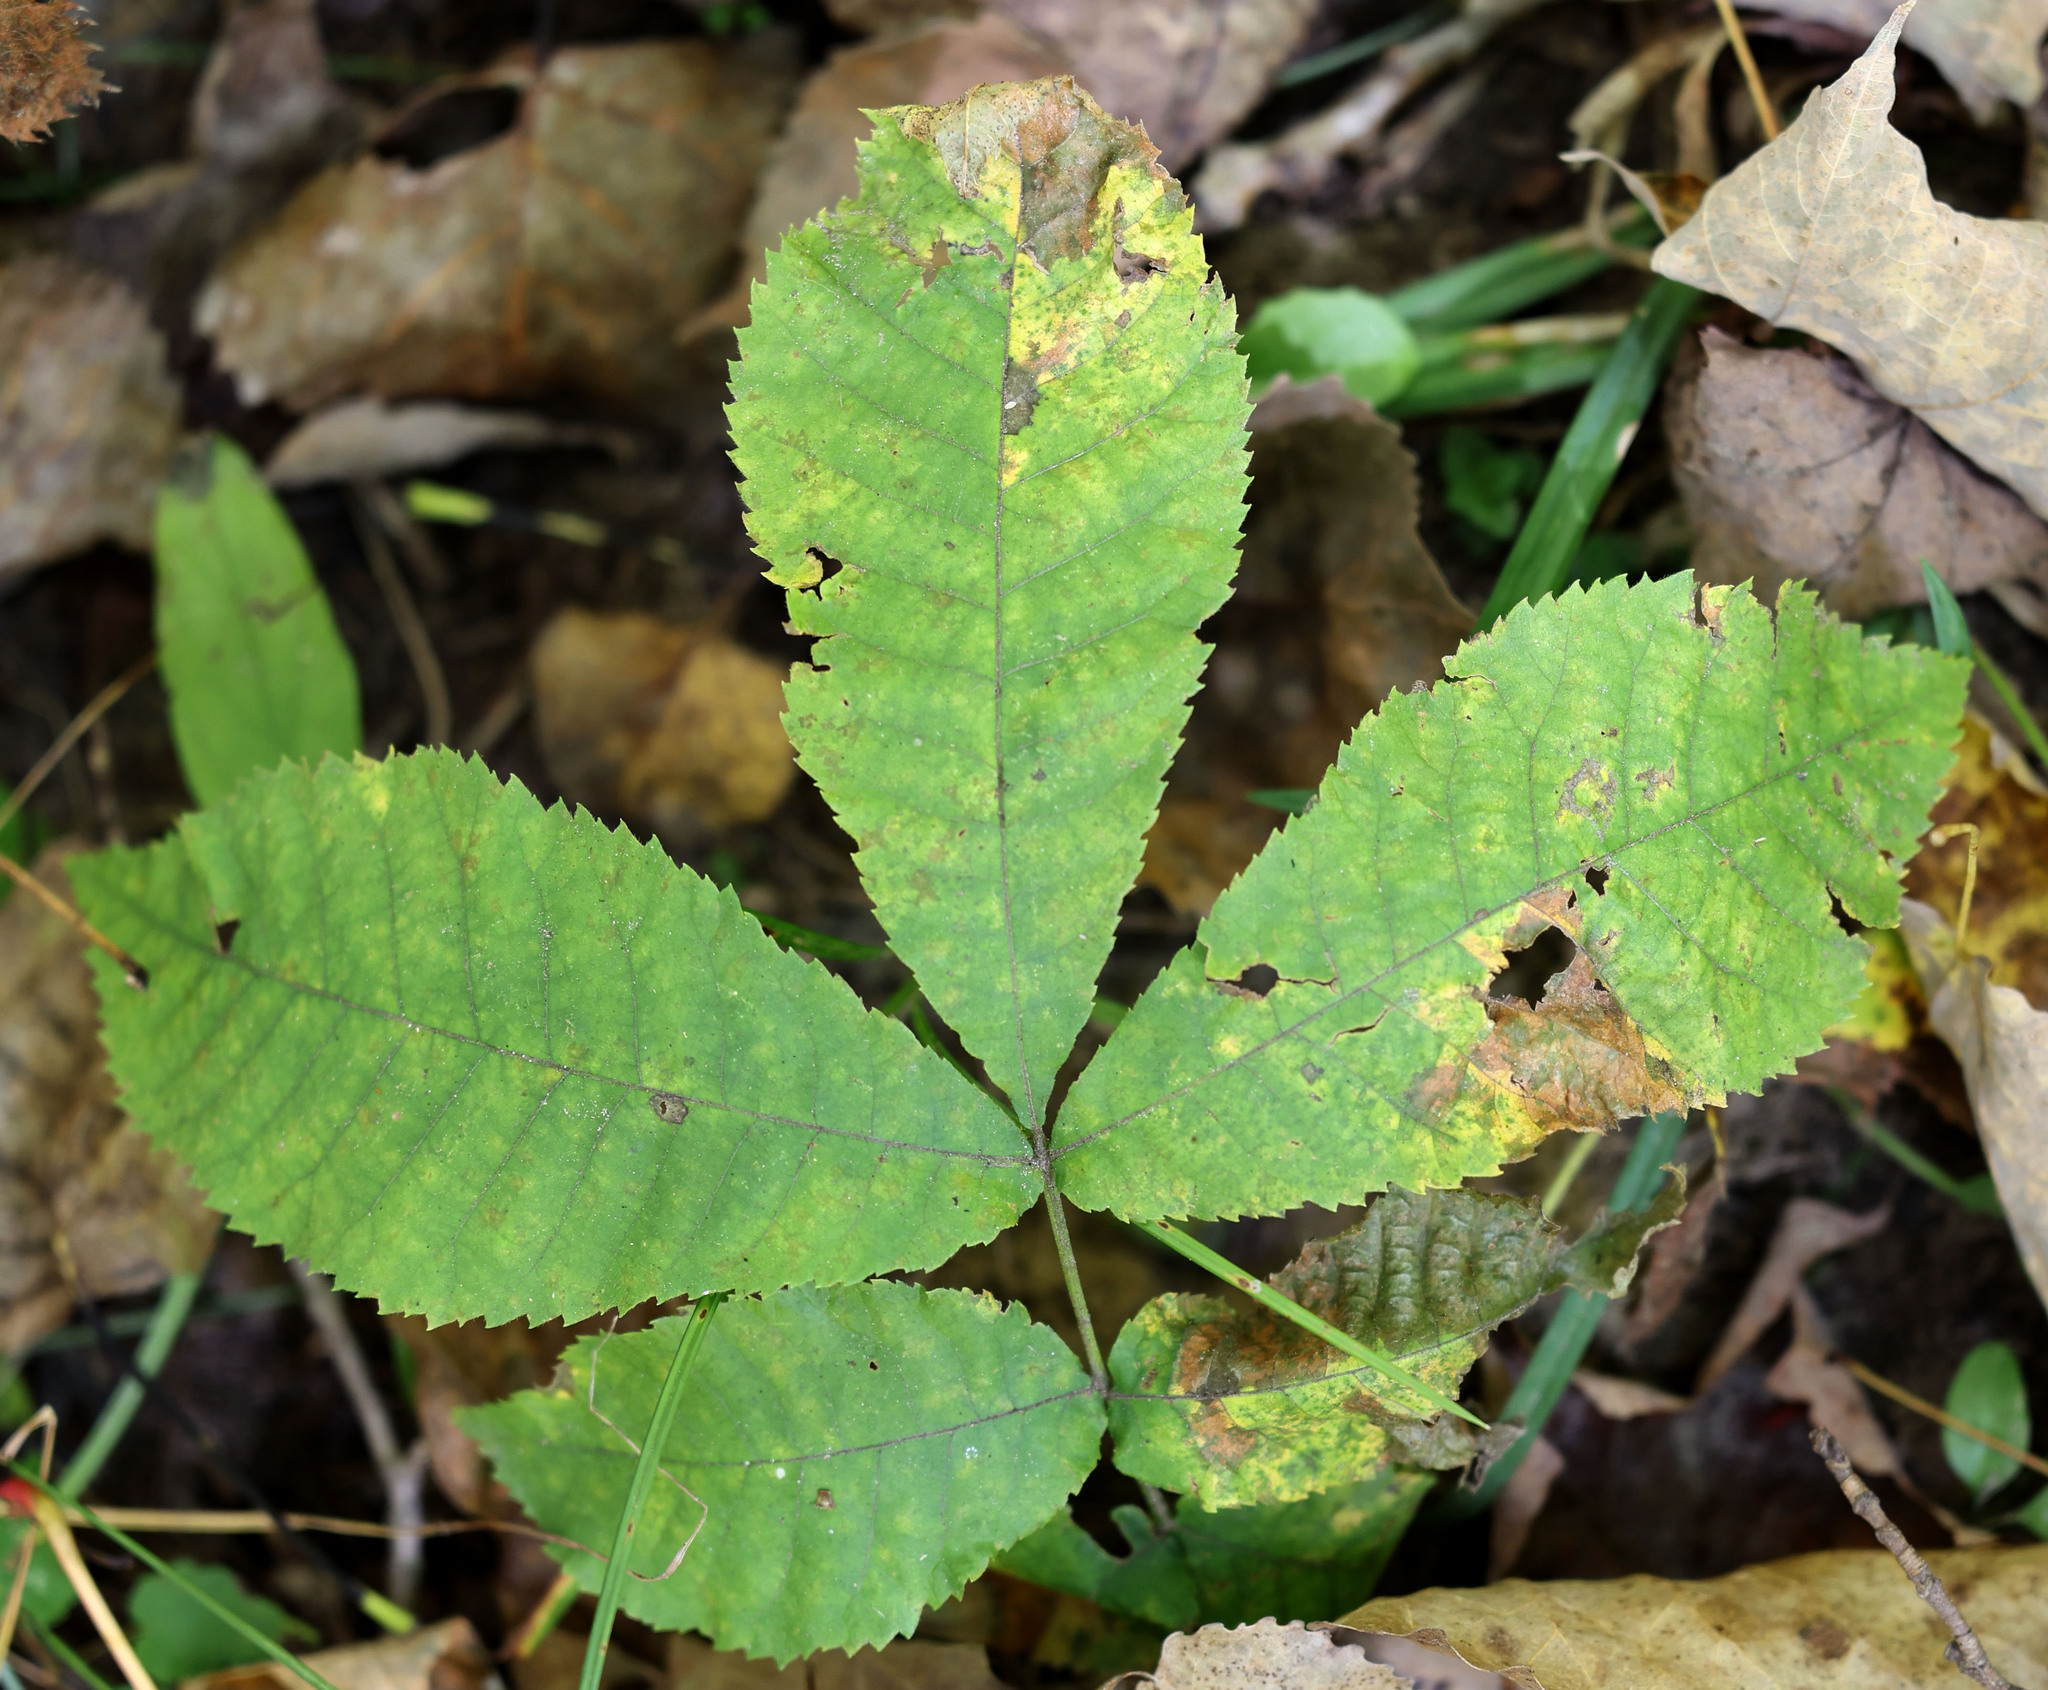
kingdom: Plantae
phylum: Tracheophyta
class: Magnoliopsida
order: Fagales
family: Juglandaceae
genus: Carya
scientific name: Carya cordiformis
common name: Bitternut hickory
